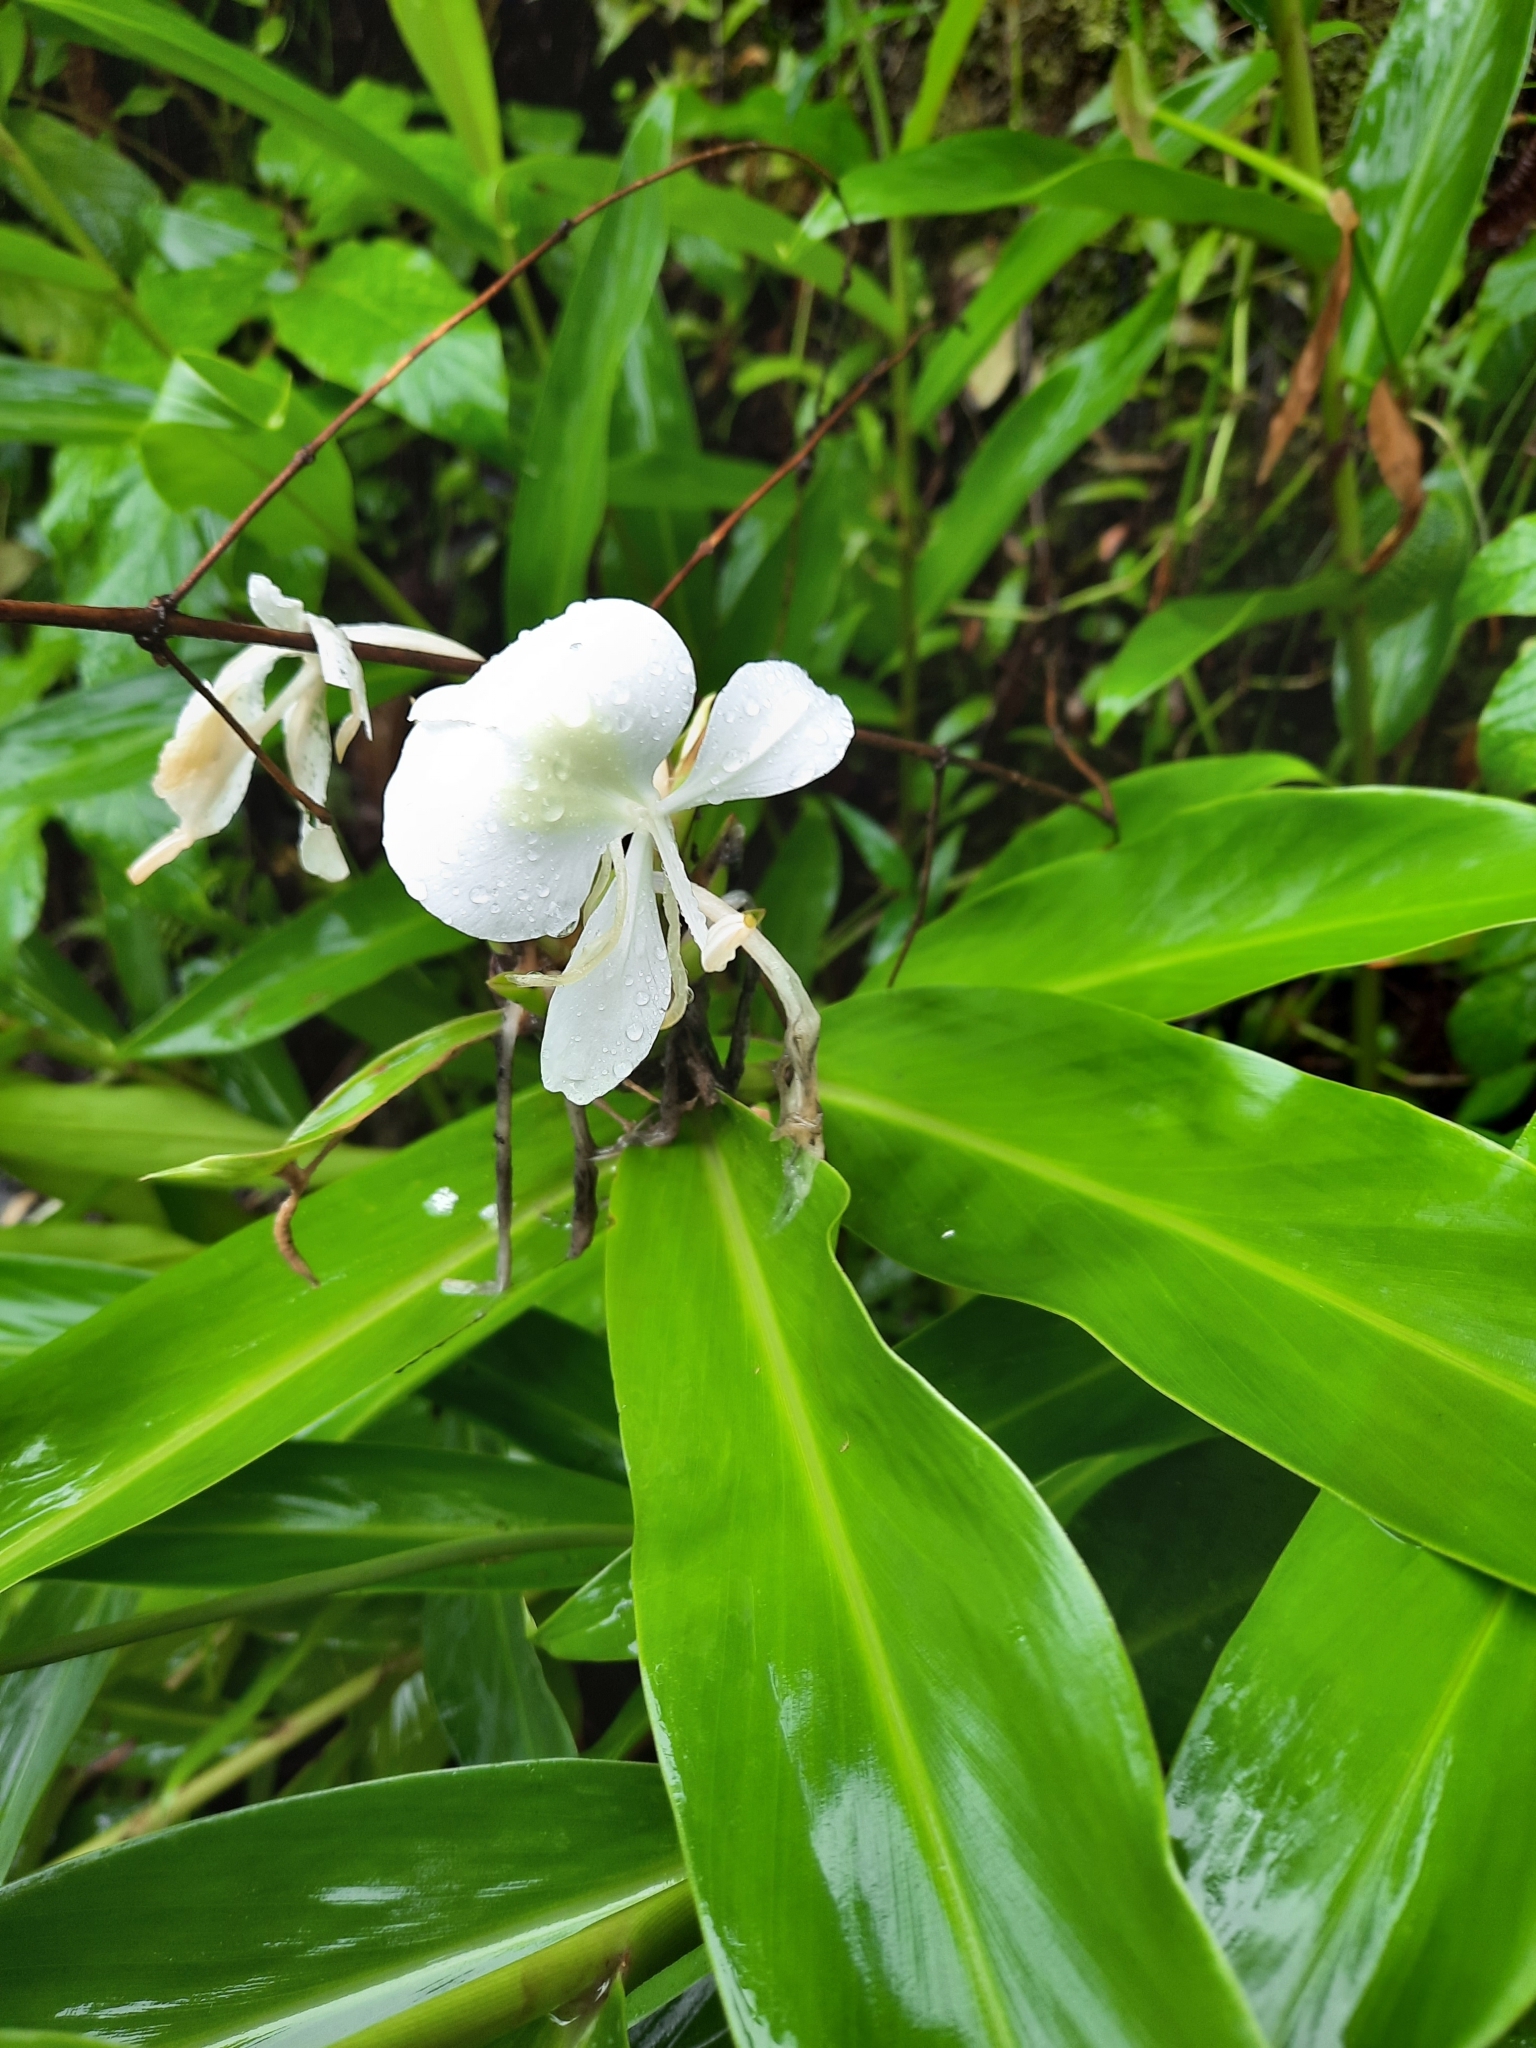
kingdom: Plantae
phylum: Tracheophyta
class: Liliopsida
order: Zingiberales
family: Zingiberaceae
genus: Hedychium
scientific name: Hedychium coronarium
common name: White garland-lily
